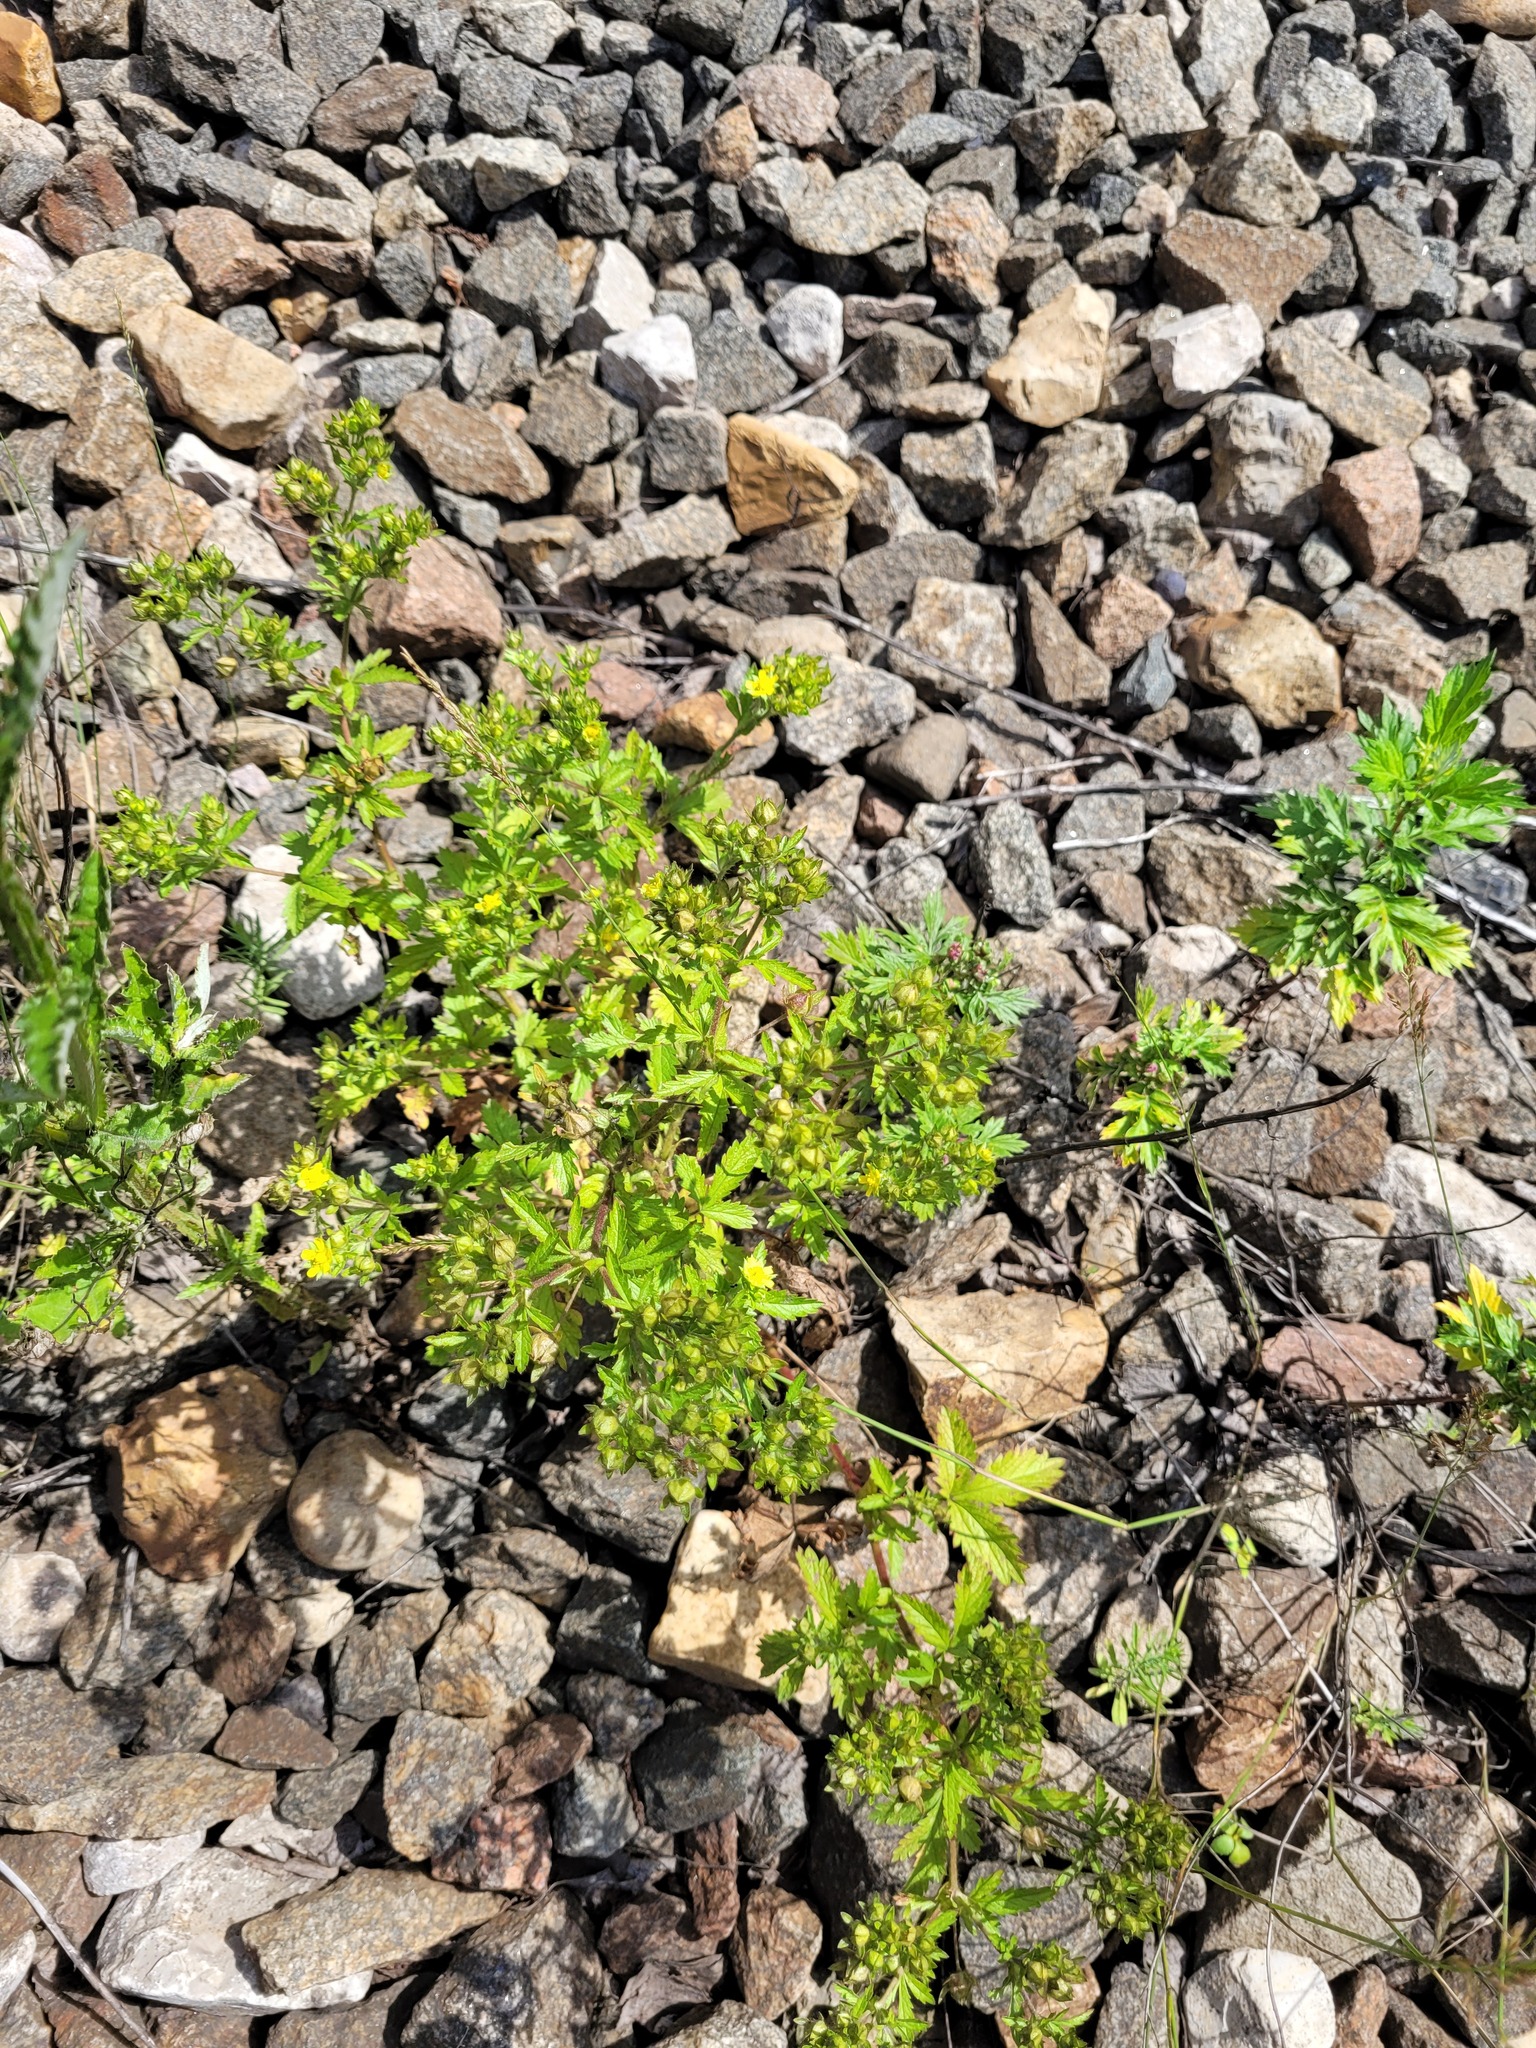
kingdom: Plantae
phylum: Tracheophyta
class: Magnoliopsida
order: Rosales
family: Rosaceae
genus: Potentilla
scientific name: Potentilla norvegica
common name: Ternate-leaved cinquefoil
